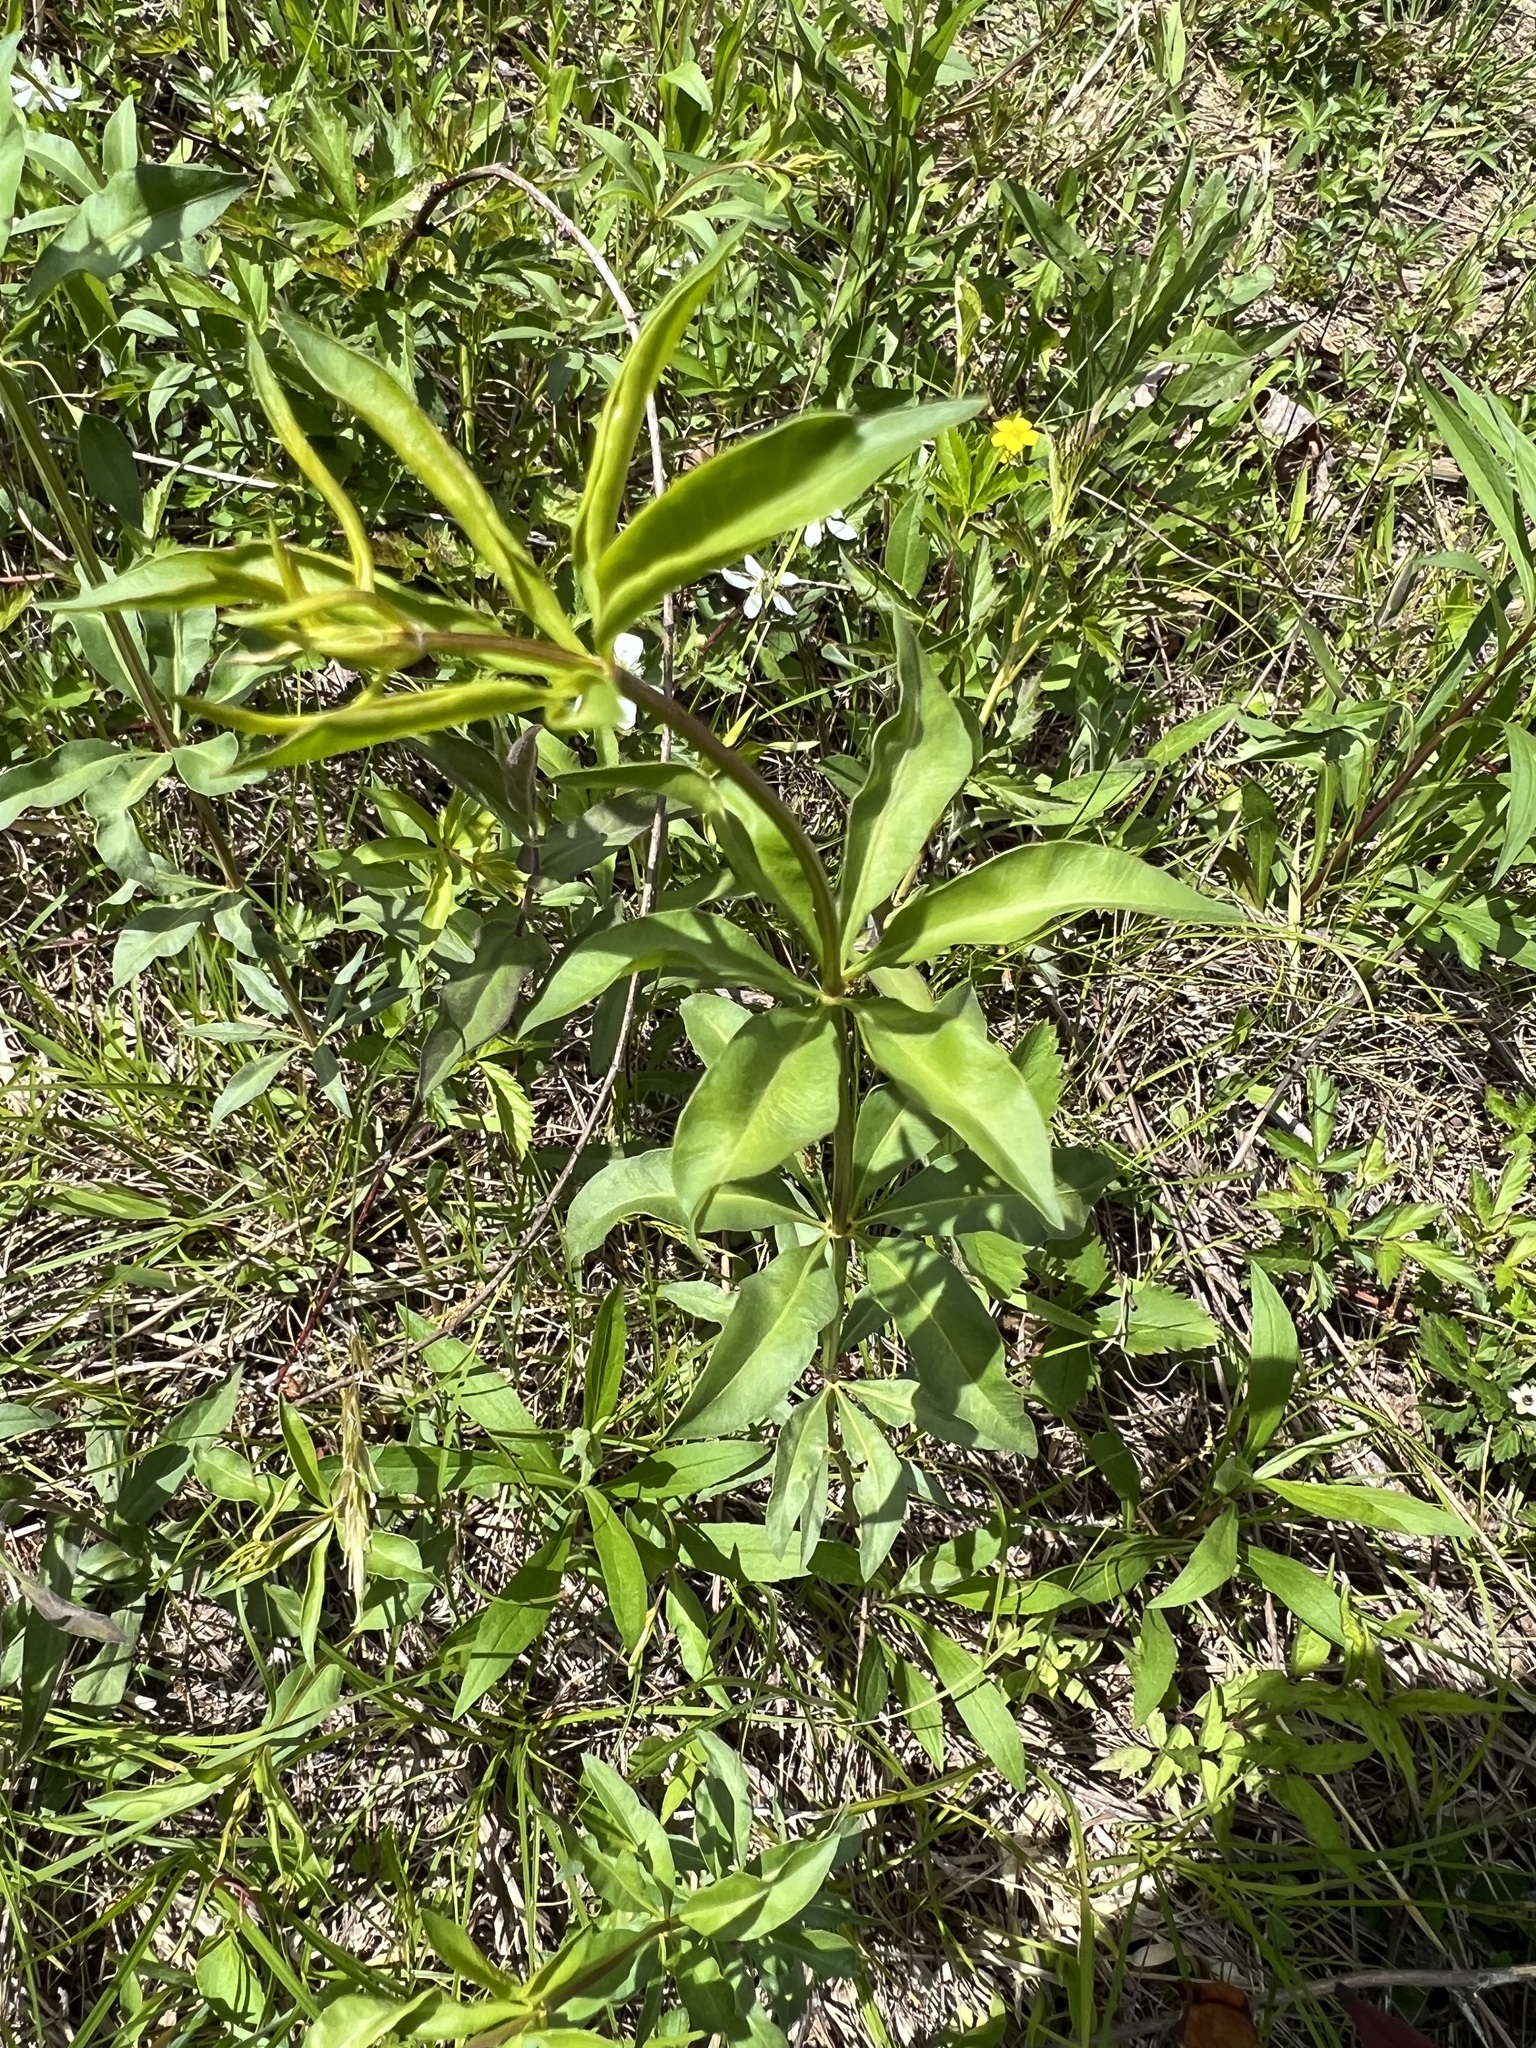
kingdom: Plantae
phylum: Tracheophyta
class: Magnoliopsida
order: Asterales
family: Asteraceae
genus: Coreopsis
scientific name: Coreopsis major
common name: Forest tickseed
